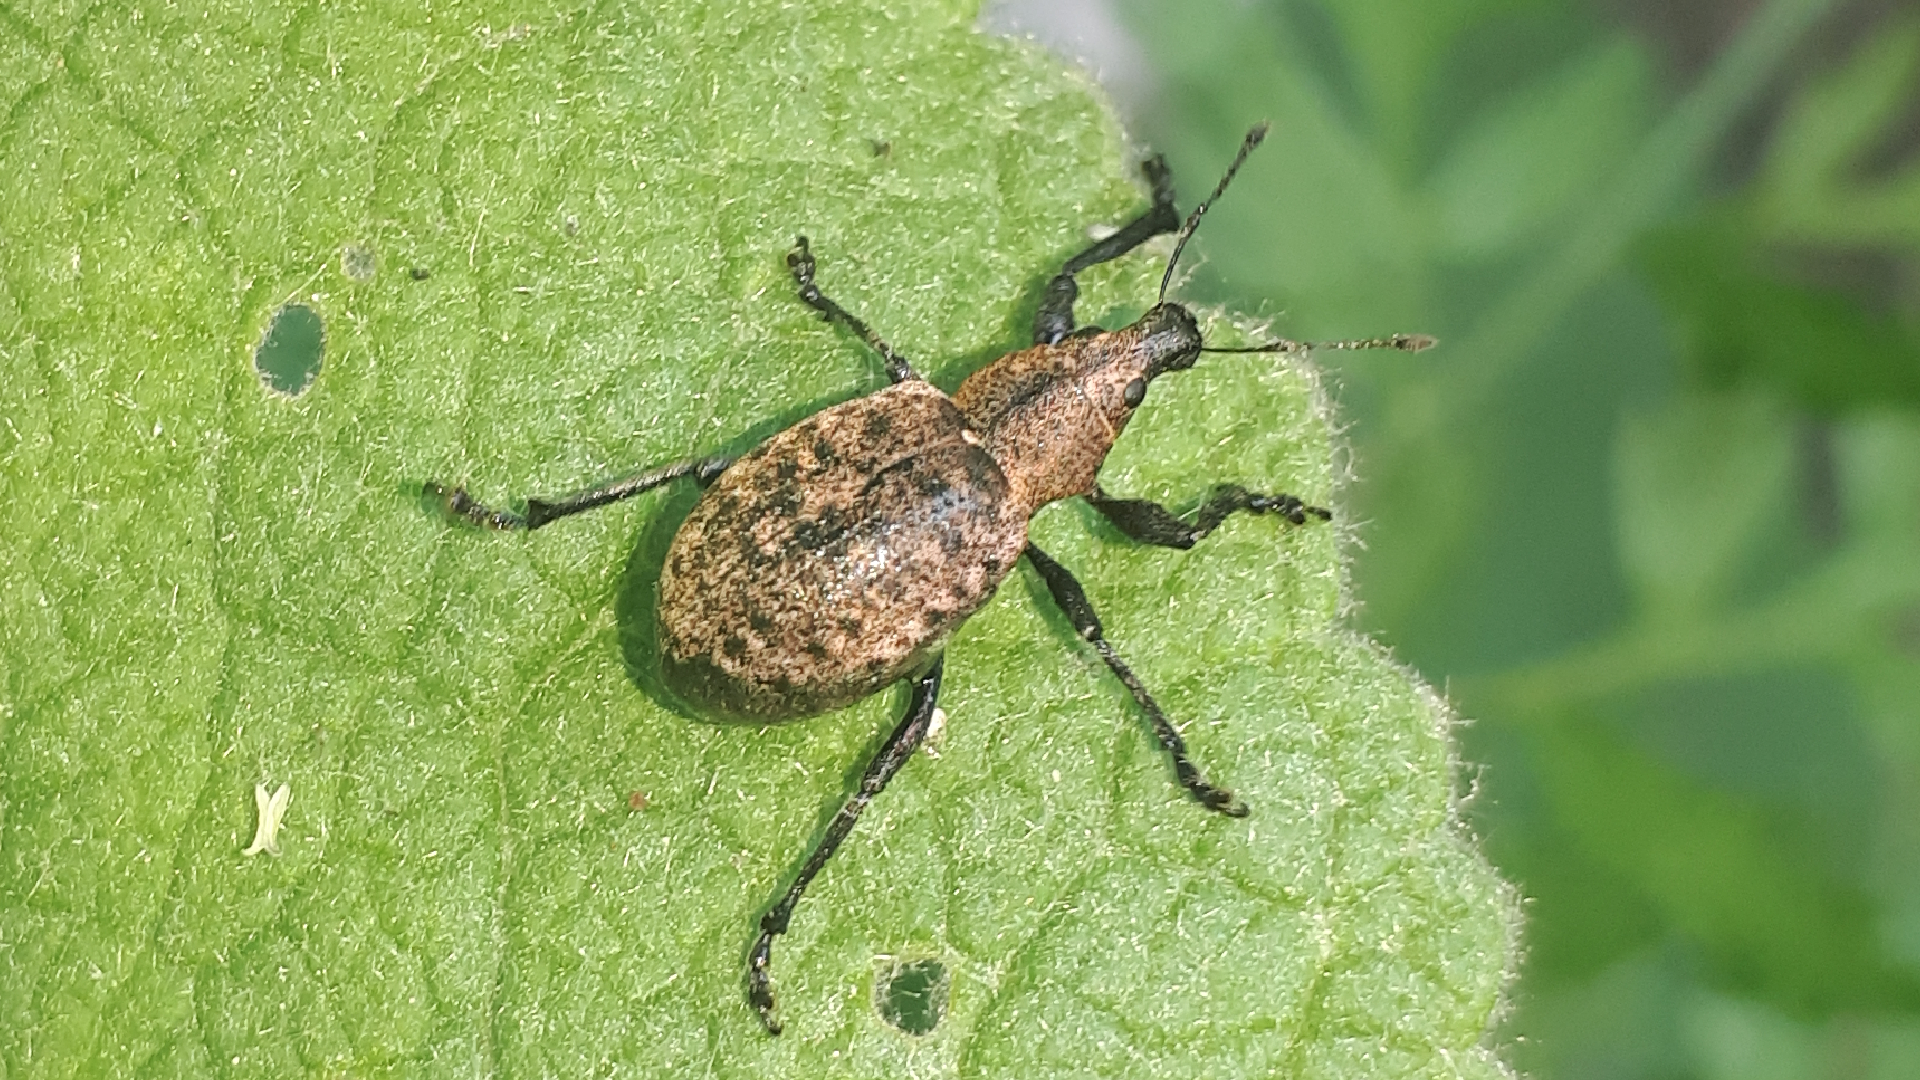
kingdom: Animalia
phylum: Arthropoda
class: Insecta
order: Coleoptera
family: Curculionidae
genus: Liophloeus
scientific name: Liophloeus tessulatus
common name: Weevil
